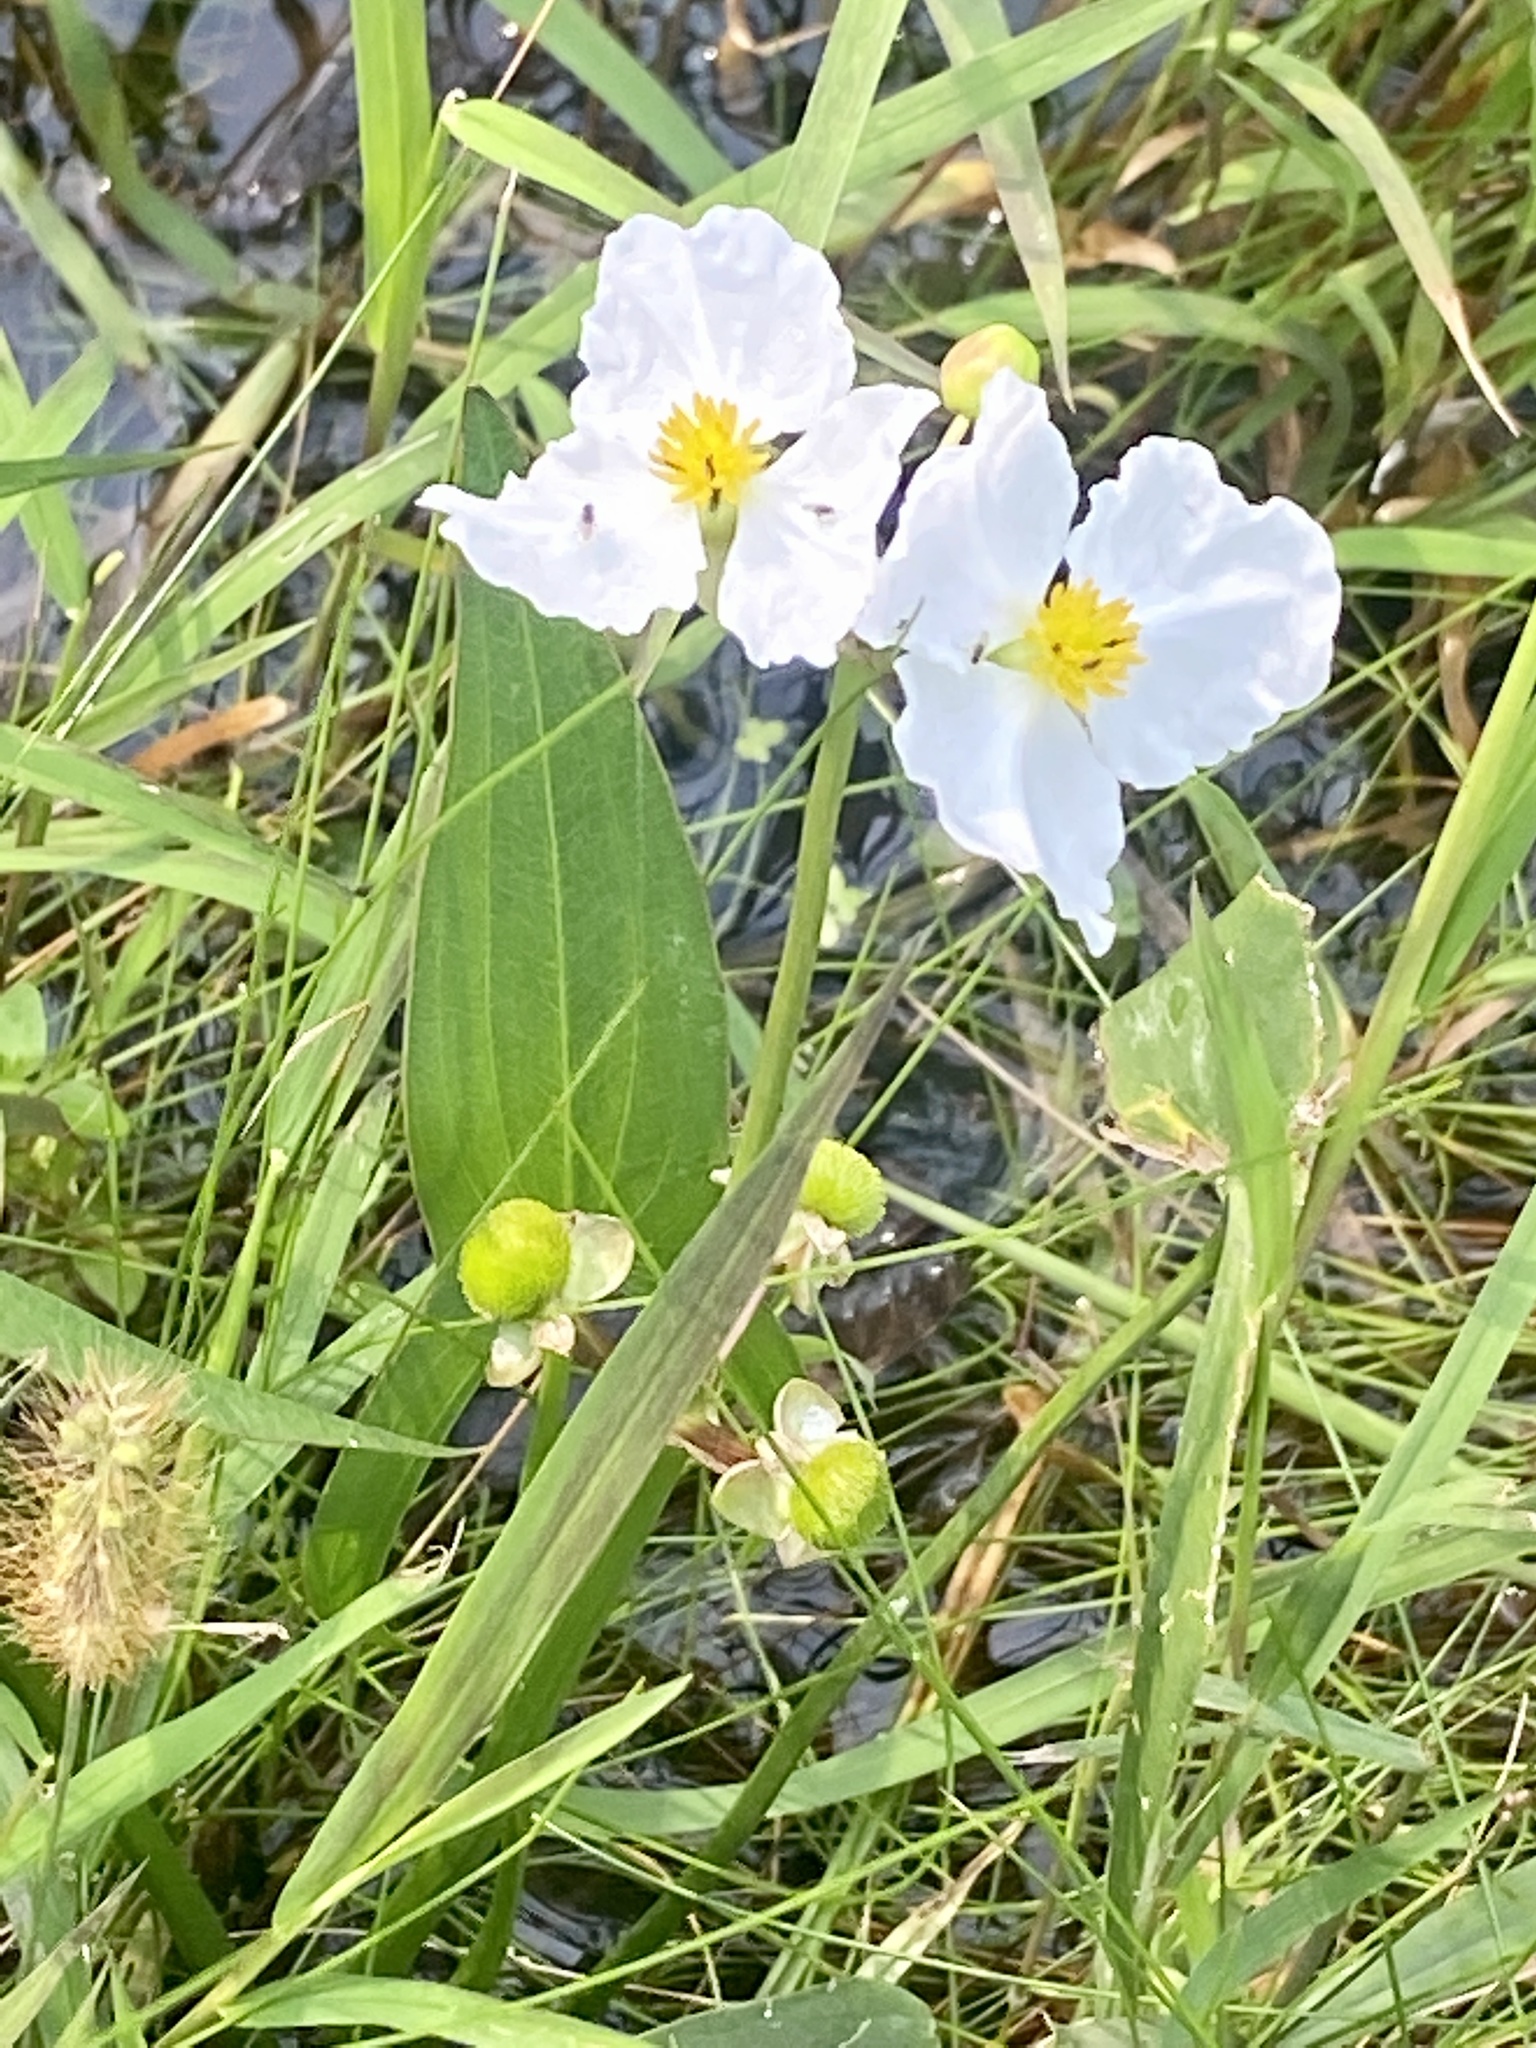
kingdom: Plantae
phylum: Tracheophyta
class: Liliopsida
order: Alismatales
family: Alismataceae
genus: Sagittaria
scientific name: Sagittaria latifolia
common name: Duck-potato
